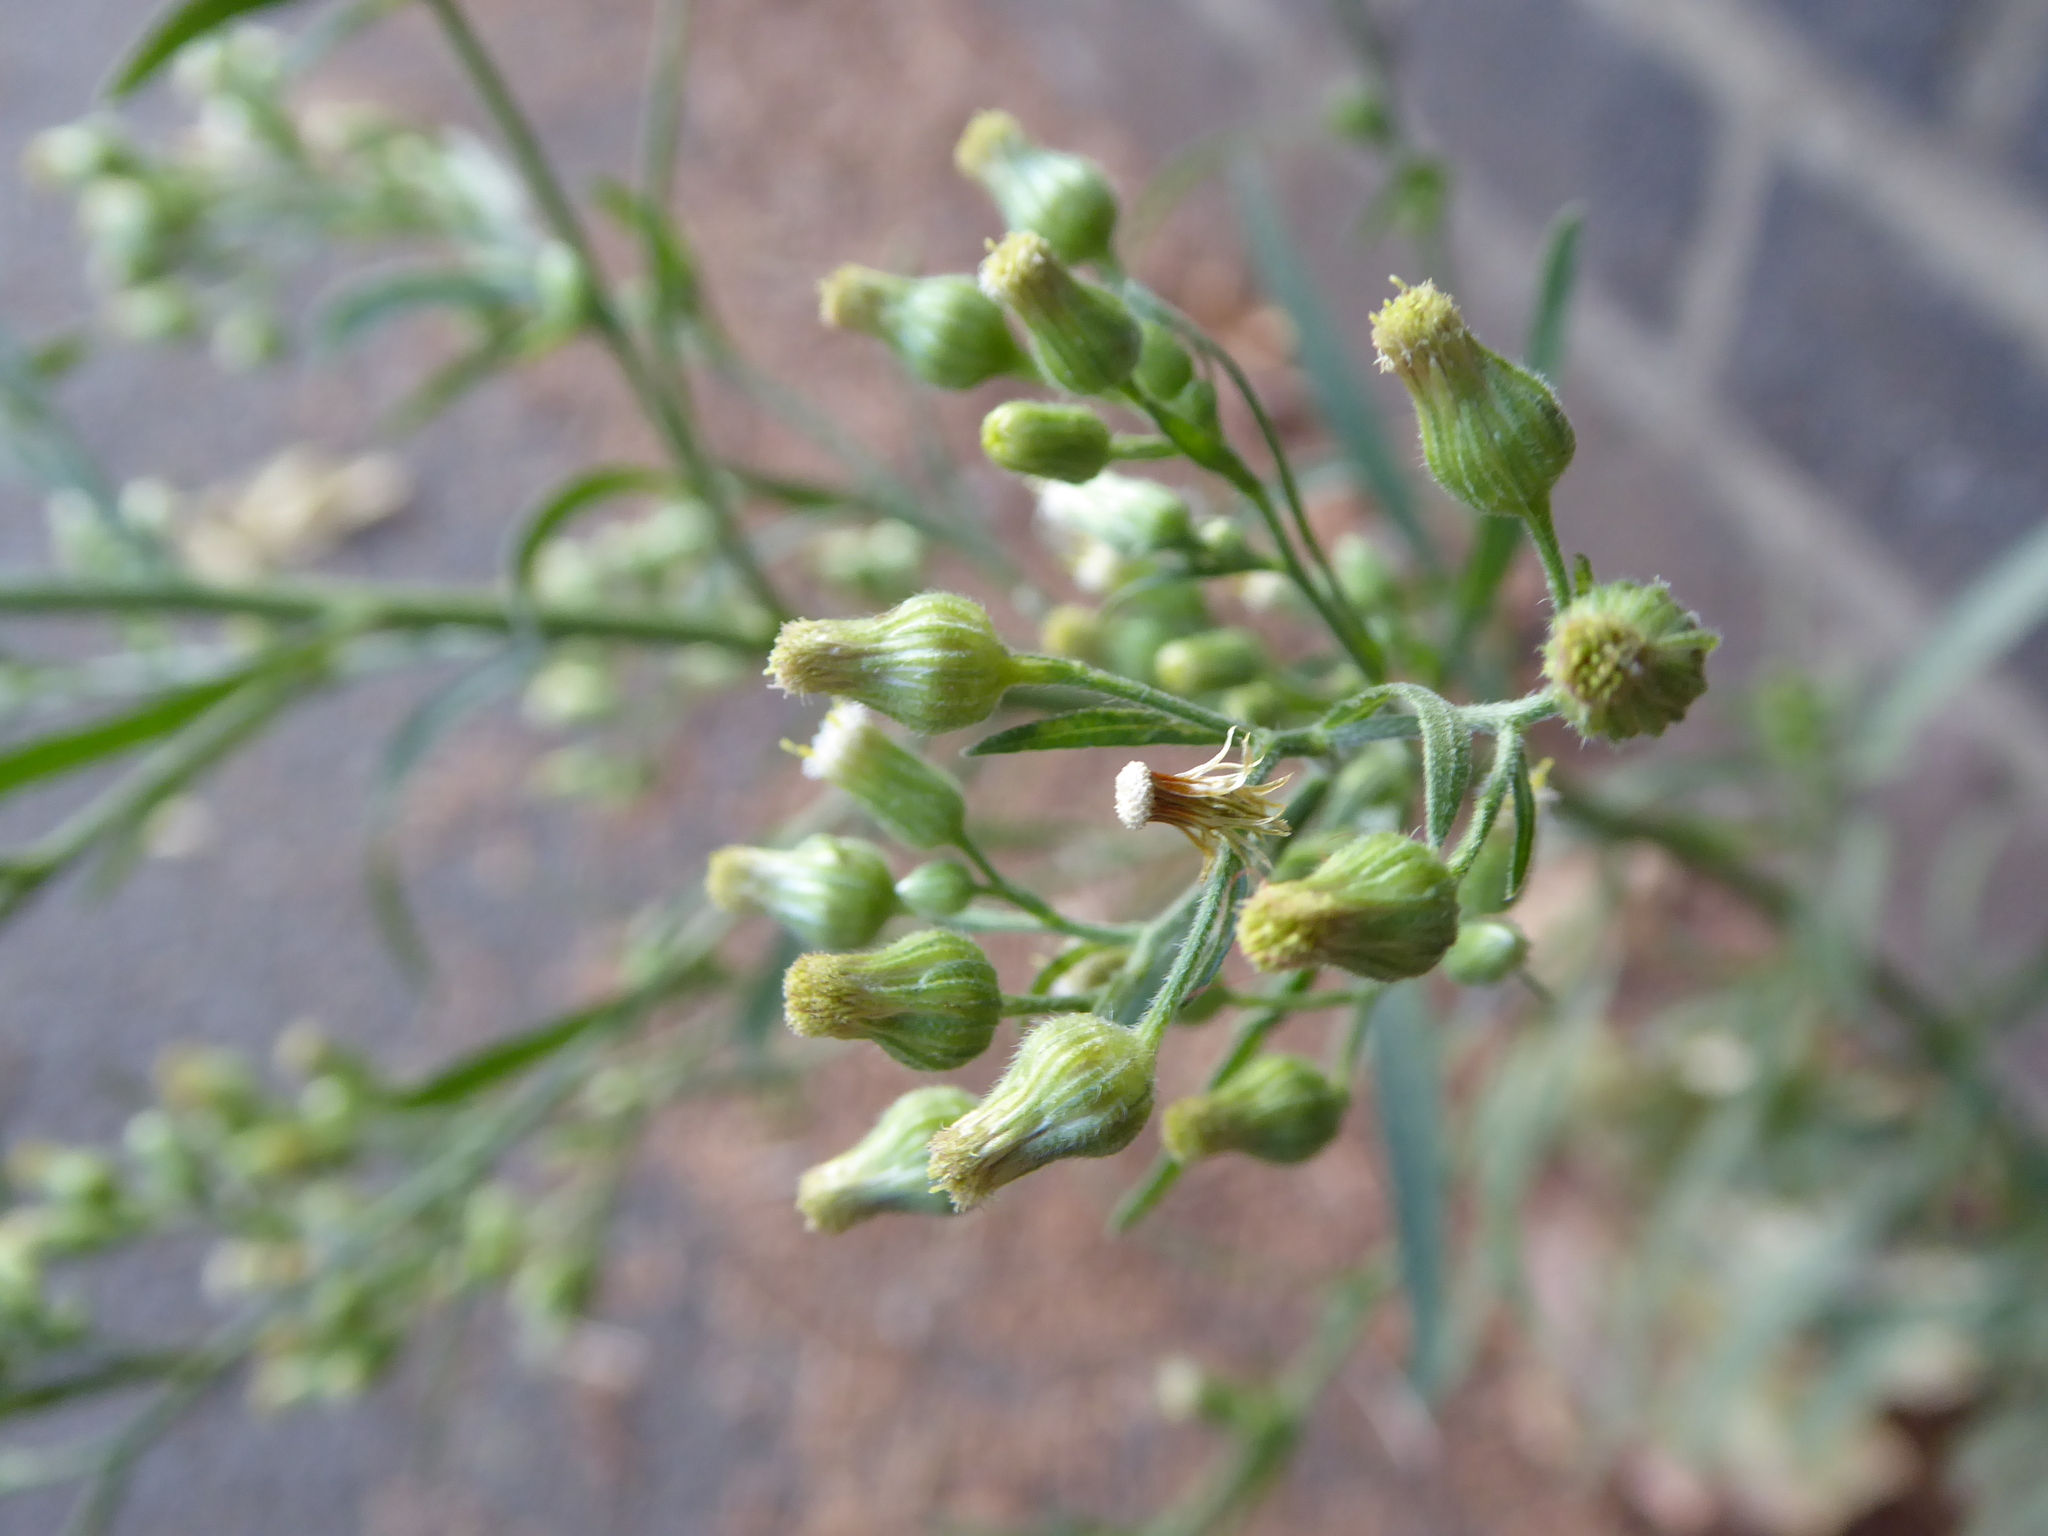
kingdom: Plantae
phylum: Tracheophyta
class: Magnoliopsida
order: Asterales
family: Asteraceae
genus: Erigeron
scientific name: Erigeron sumatrensis
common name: Daisy
